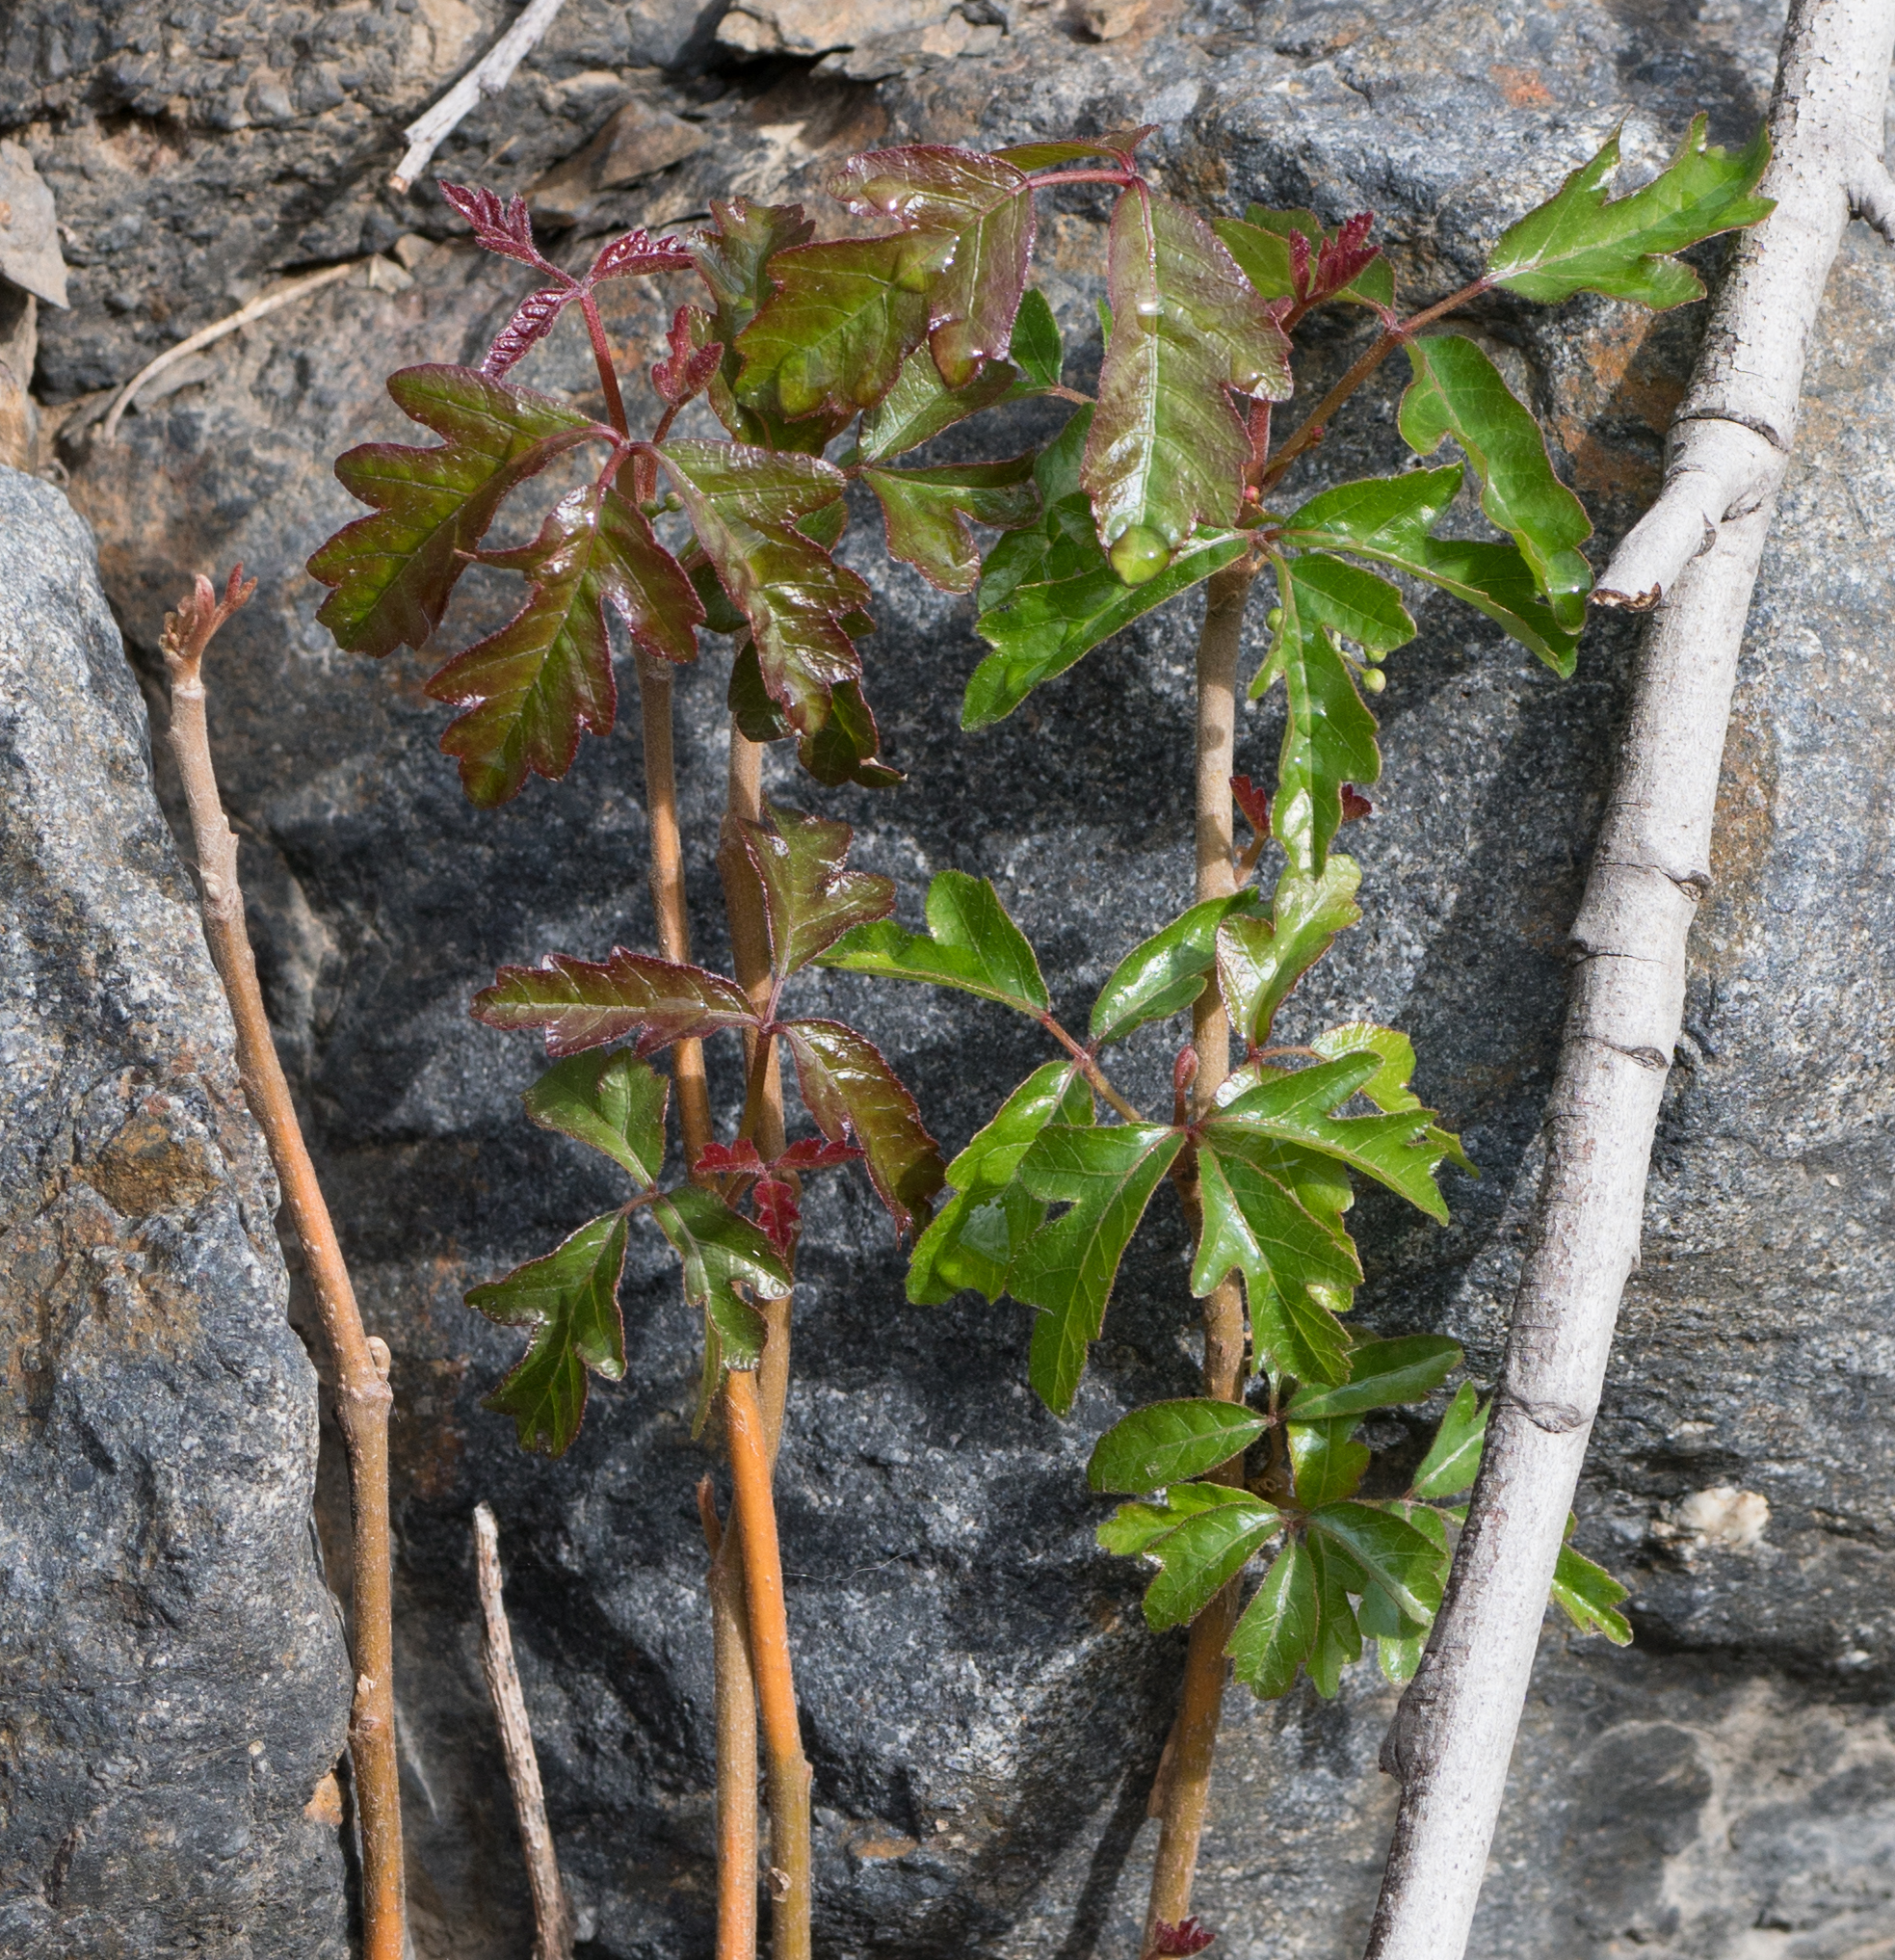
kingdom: Plantae
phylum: Tracheophyta
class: Magnoliopsida
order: Sapindales
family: Anacardiaceae
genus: Toxicodendron
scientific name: Toxicodendron diversilobum
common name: Pacific poison-oak
